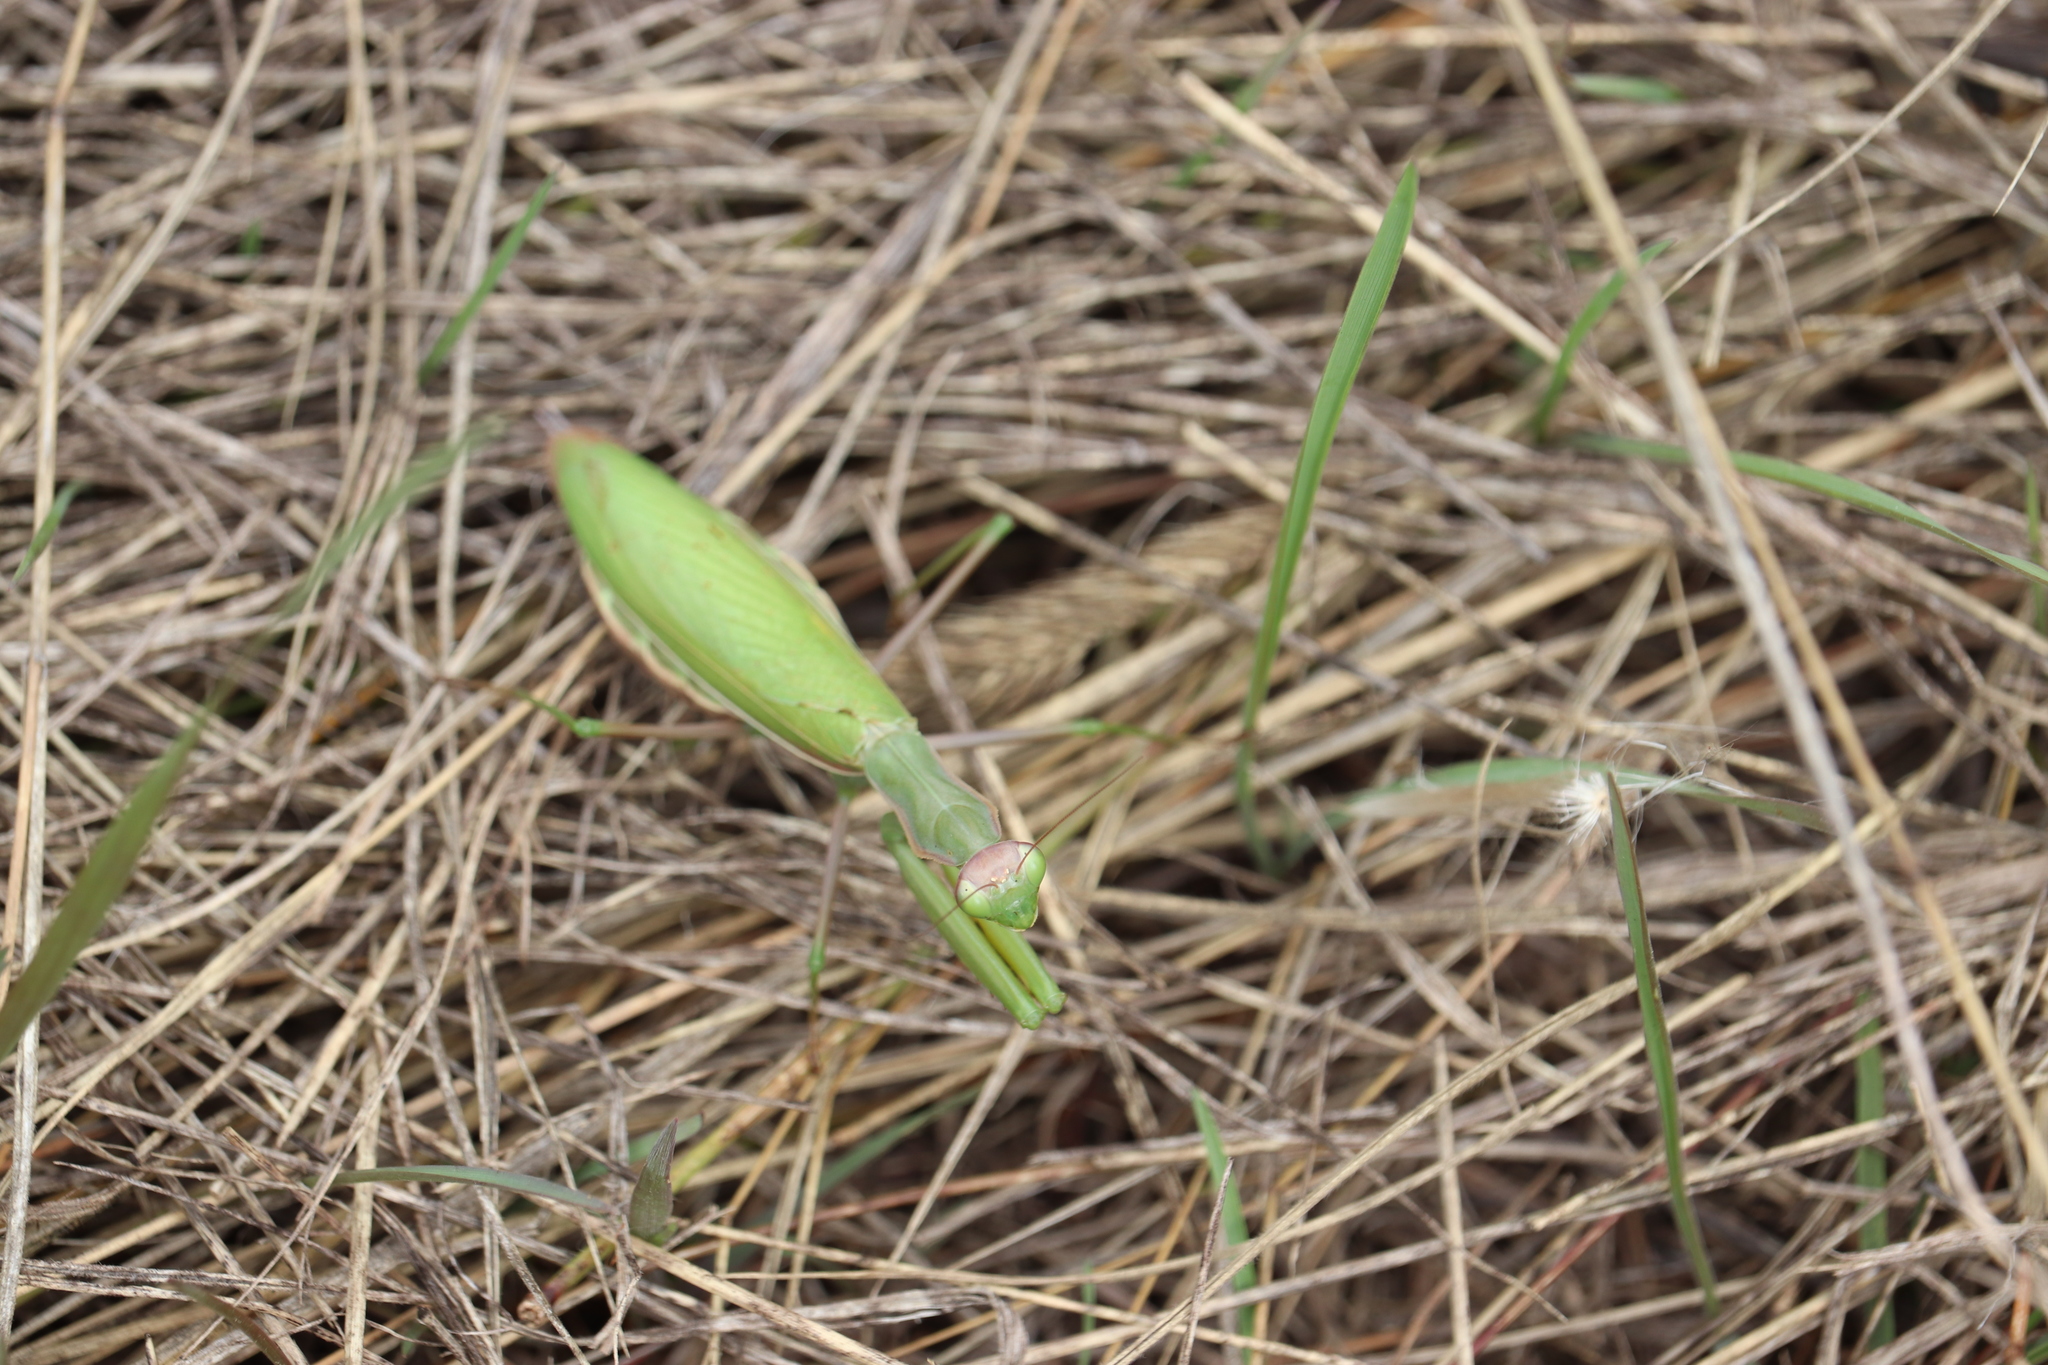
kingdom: Animalia
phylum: Arthropoda
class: Insecta
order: Mantodea
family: Mantidae
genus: Mantis
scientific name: Mantis religiosa
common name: Praying mantis
